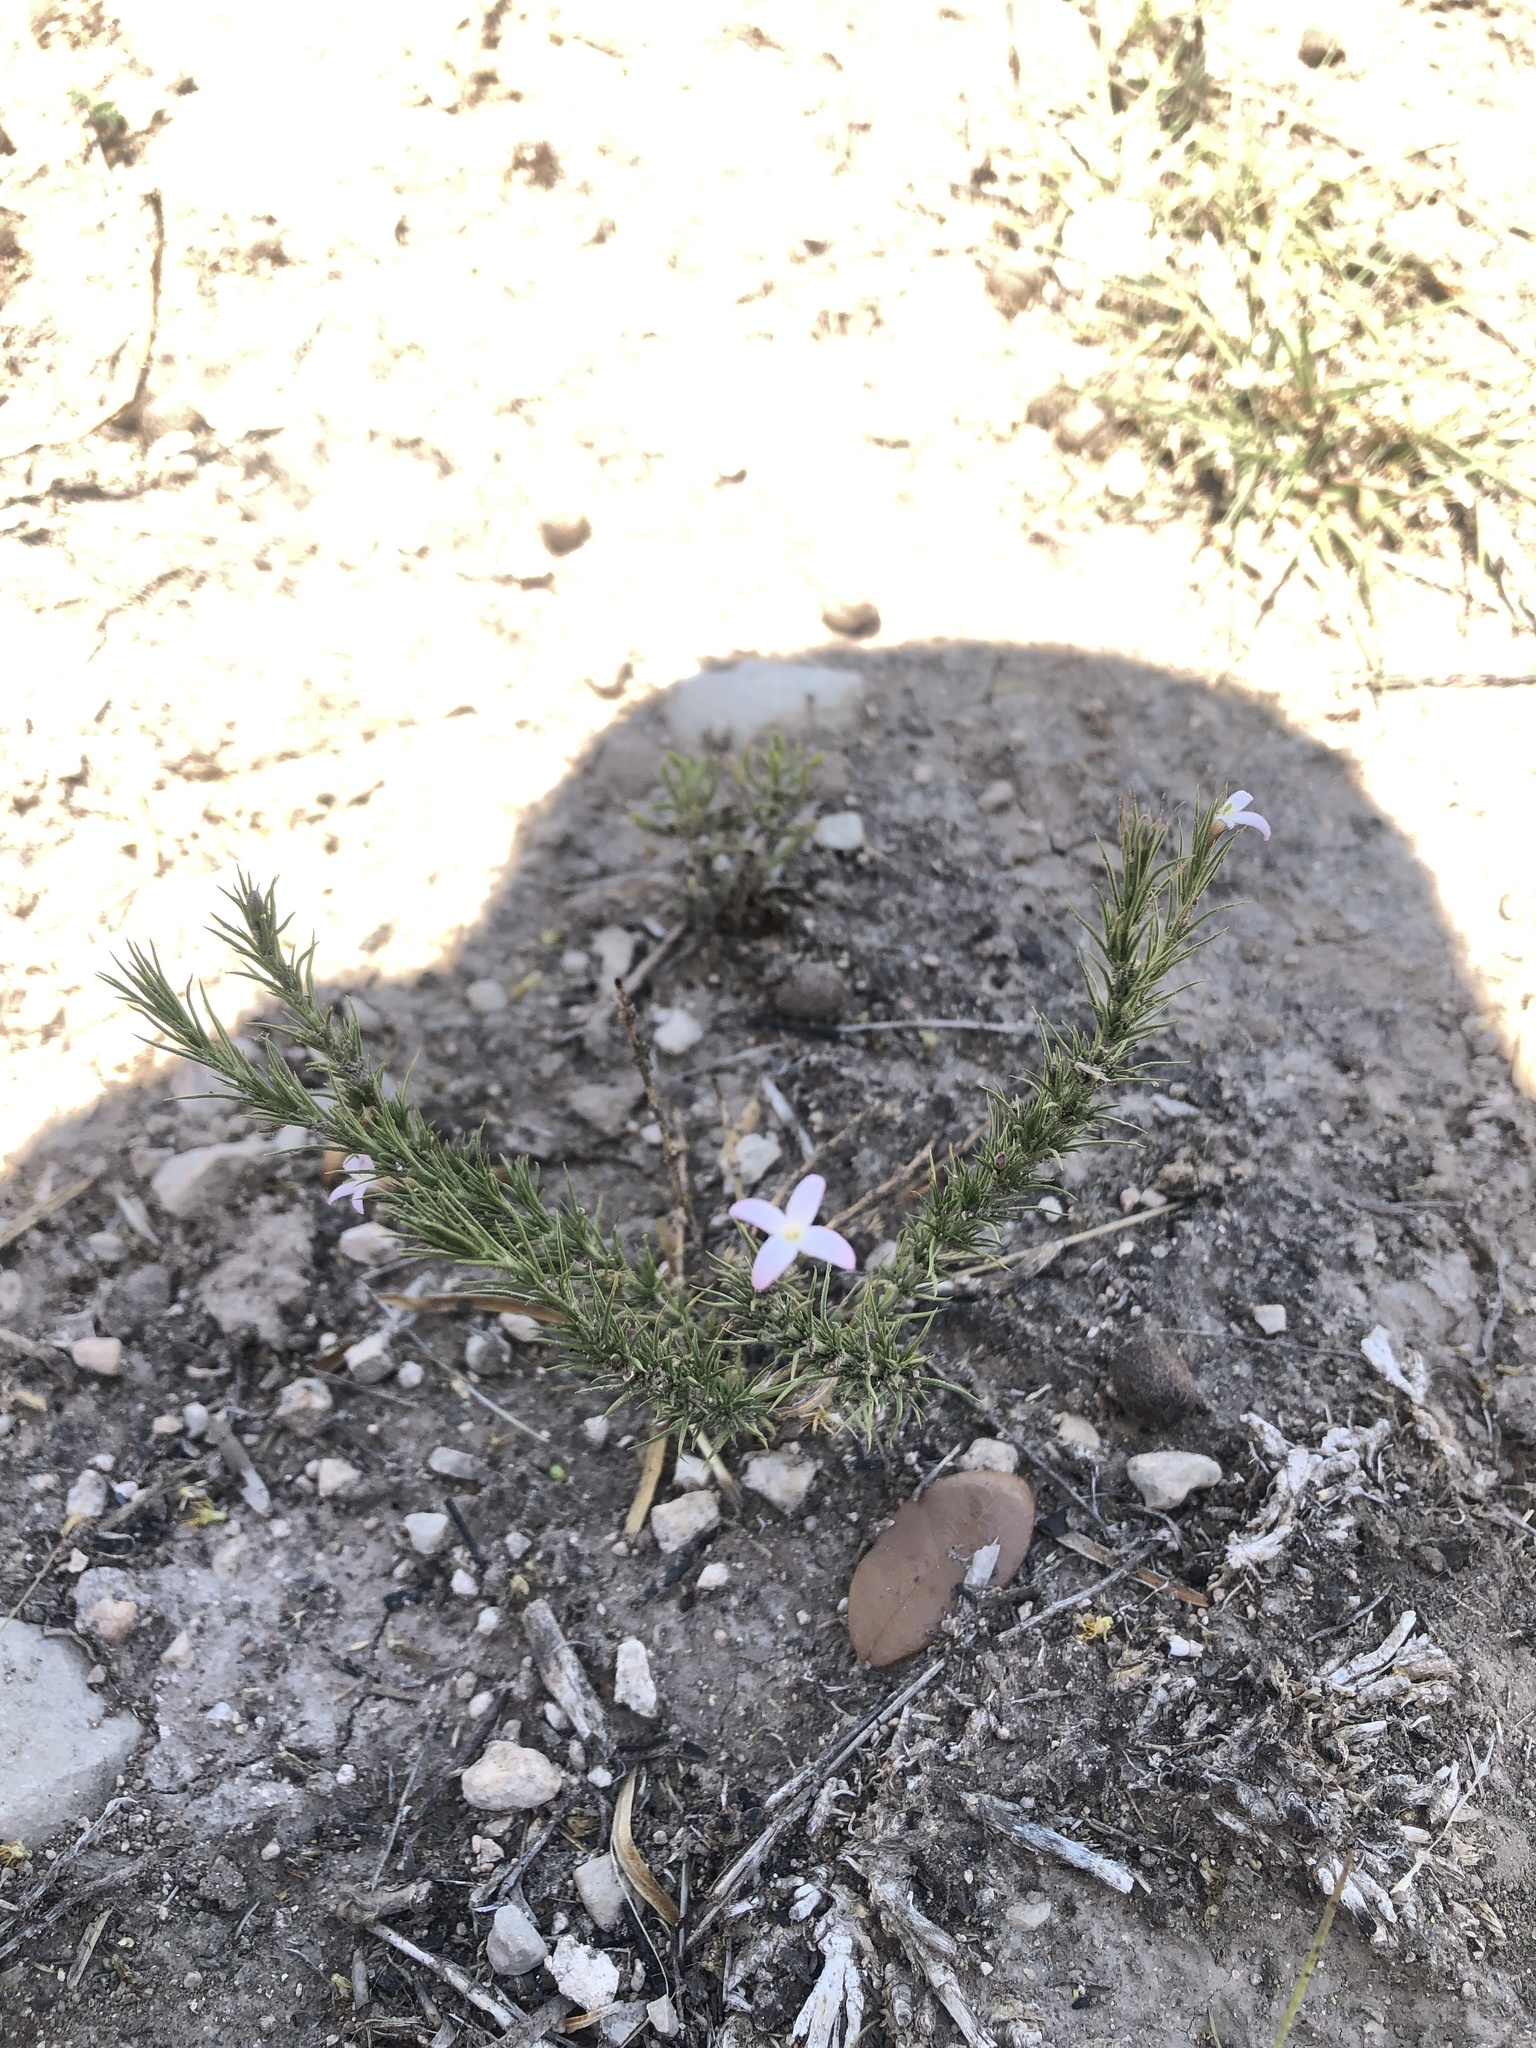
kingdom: Plantae
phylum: Tracheophyta
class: Magnoliopsida
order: Gentianales
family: Rubiaceae
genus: Houstonia
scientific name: Houstonia acerosa
